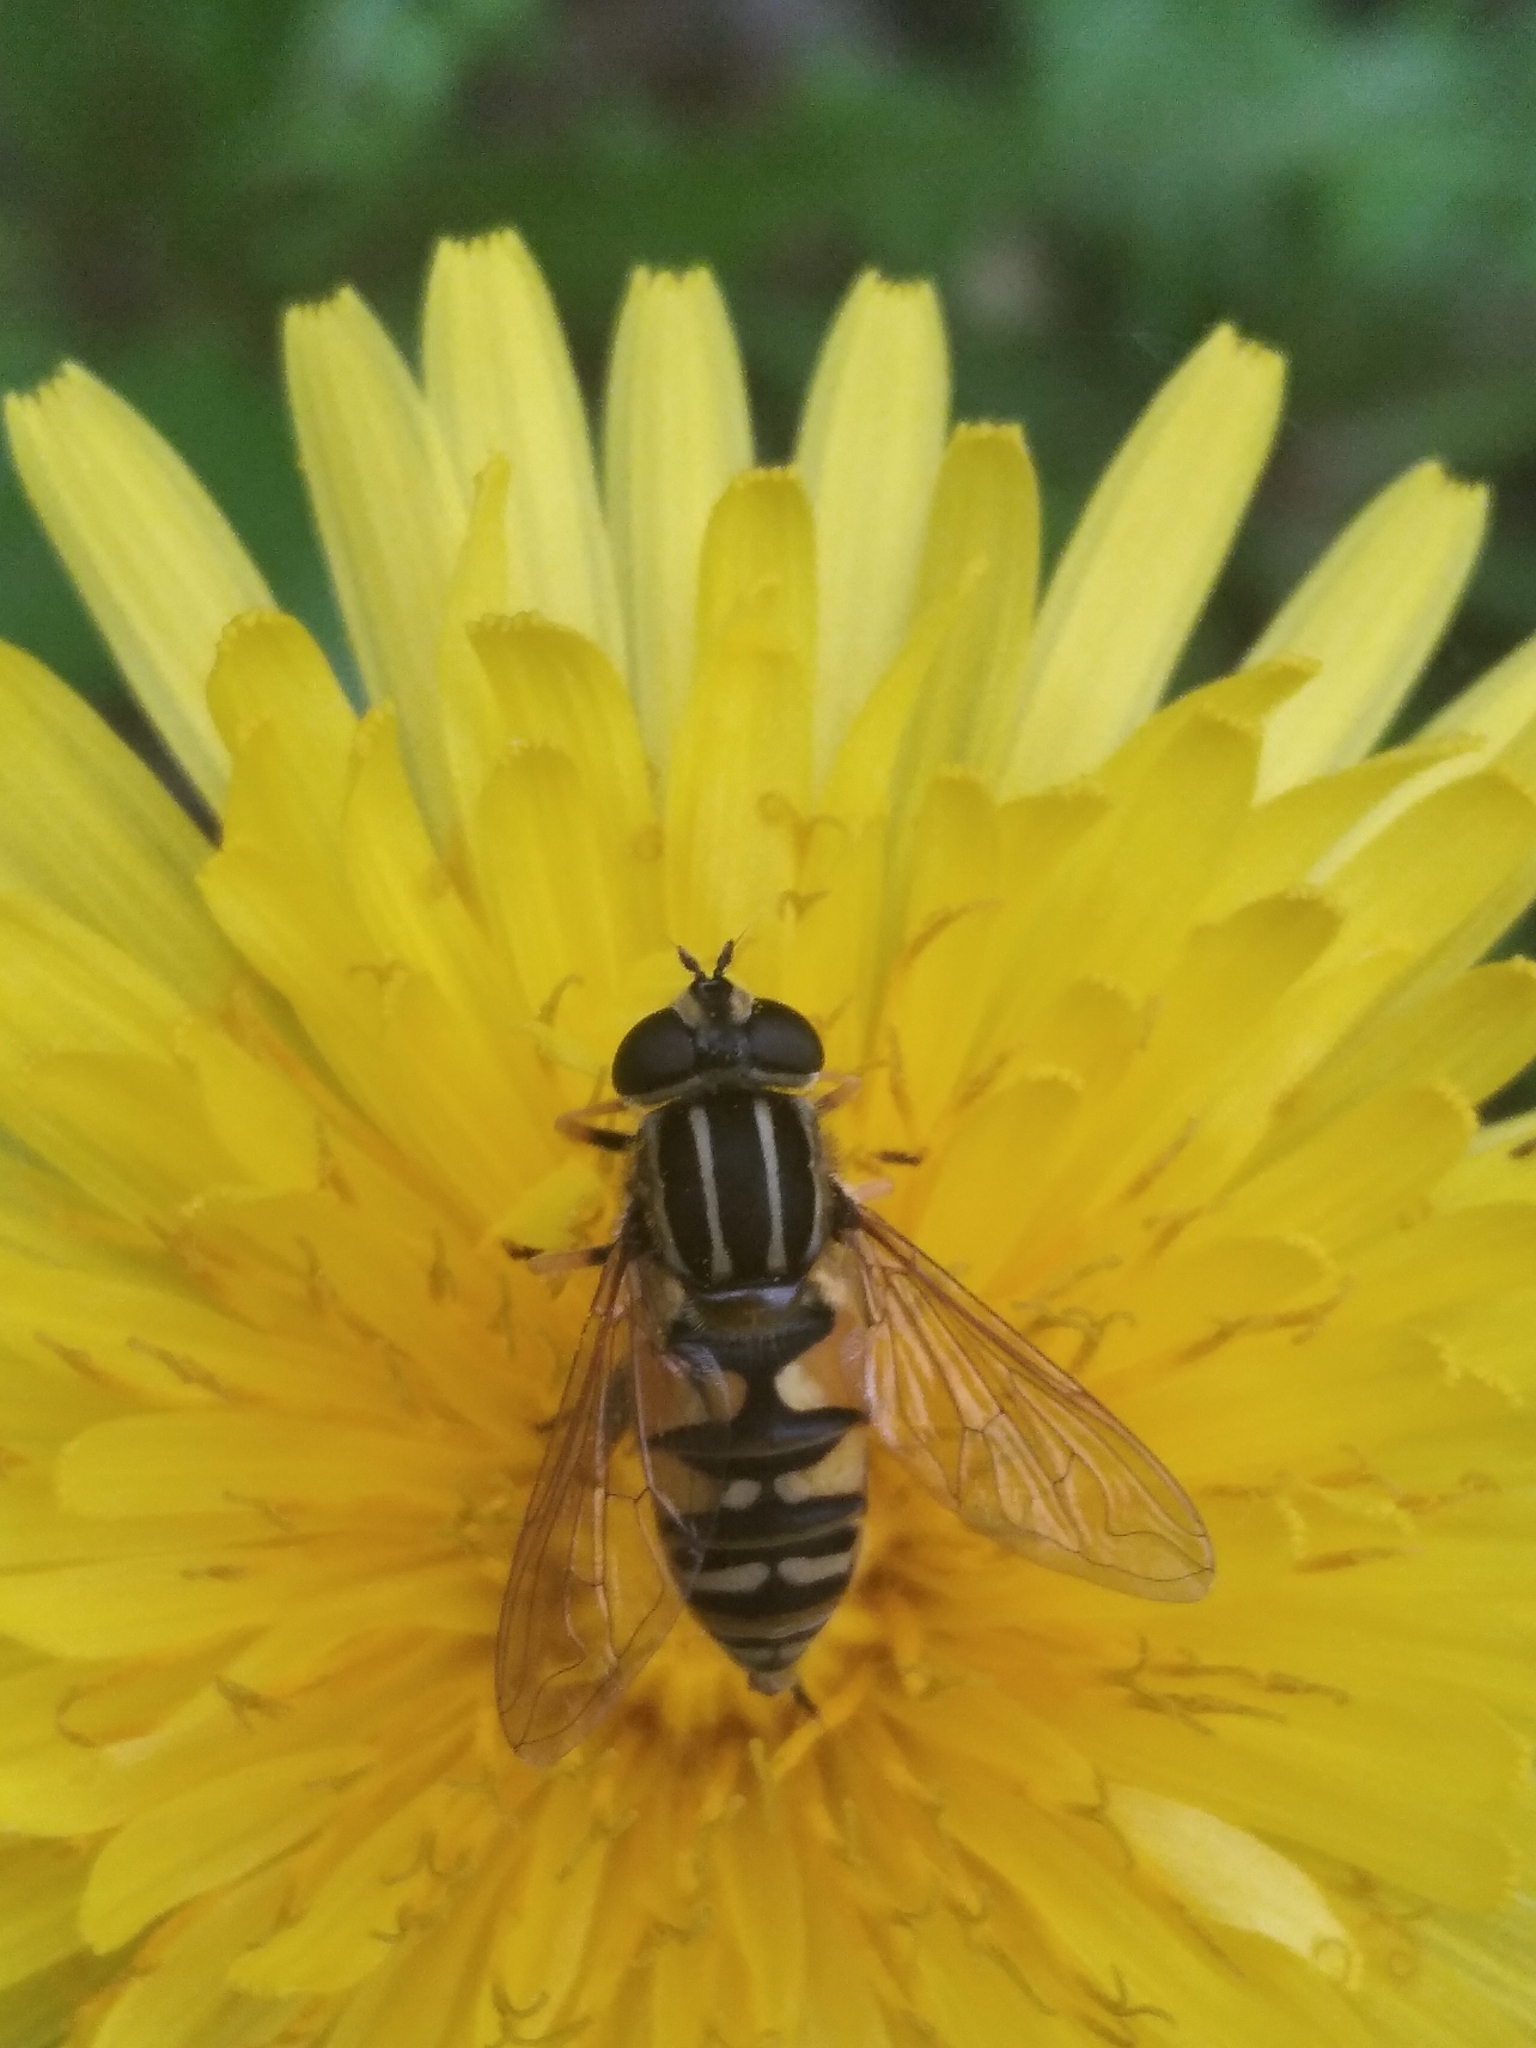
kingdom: Animalia
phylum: Arthropoda
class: Insecta
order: Diptera
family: Syrphidae
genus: Helophilus
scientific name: Helophilus pendulus
